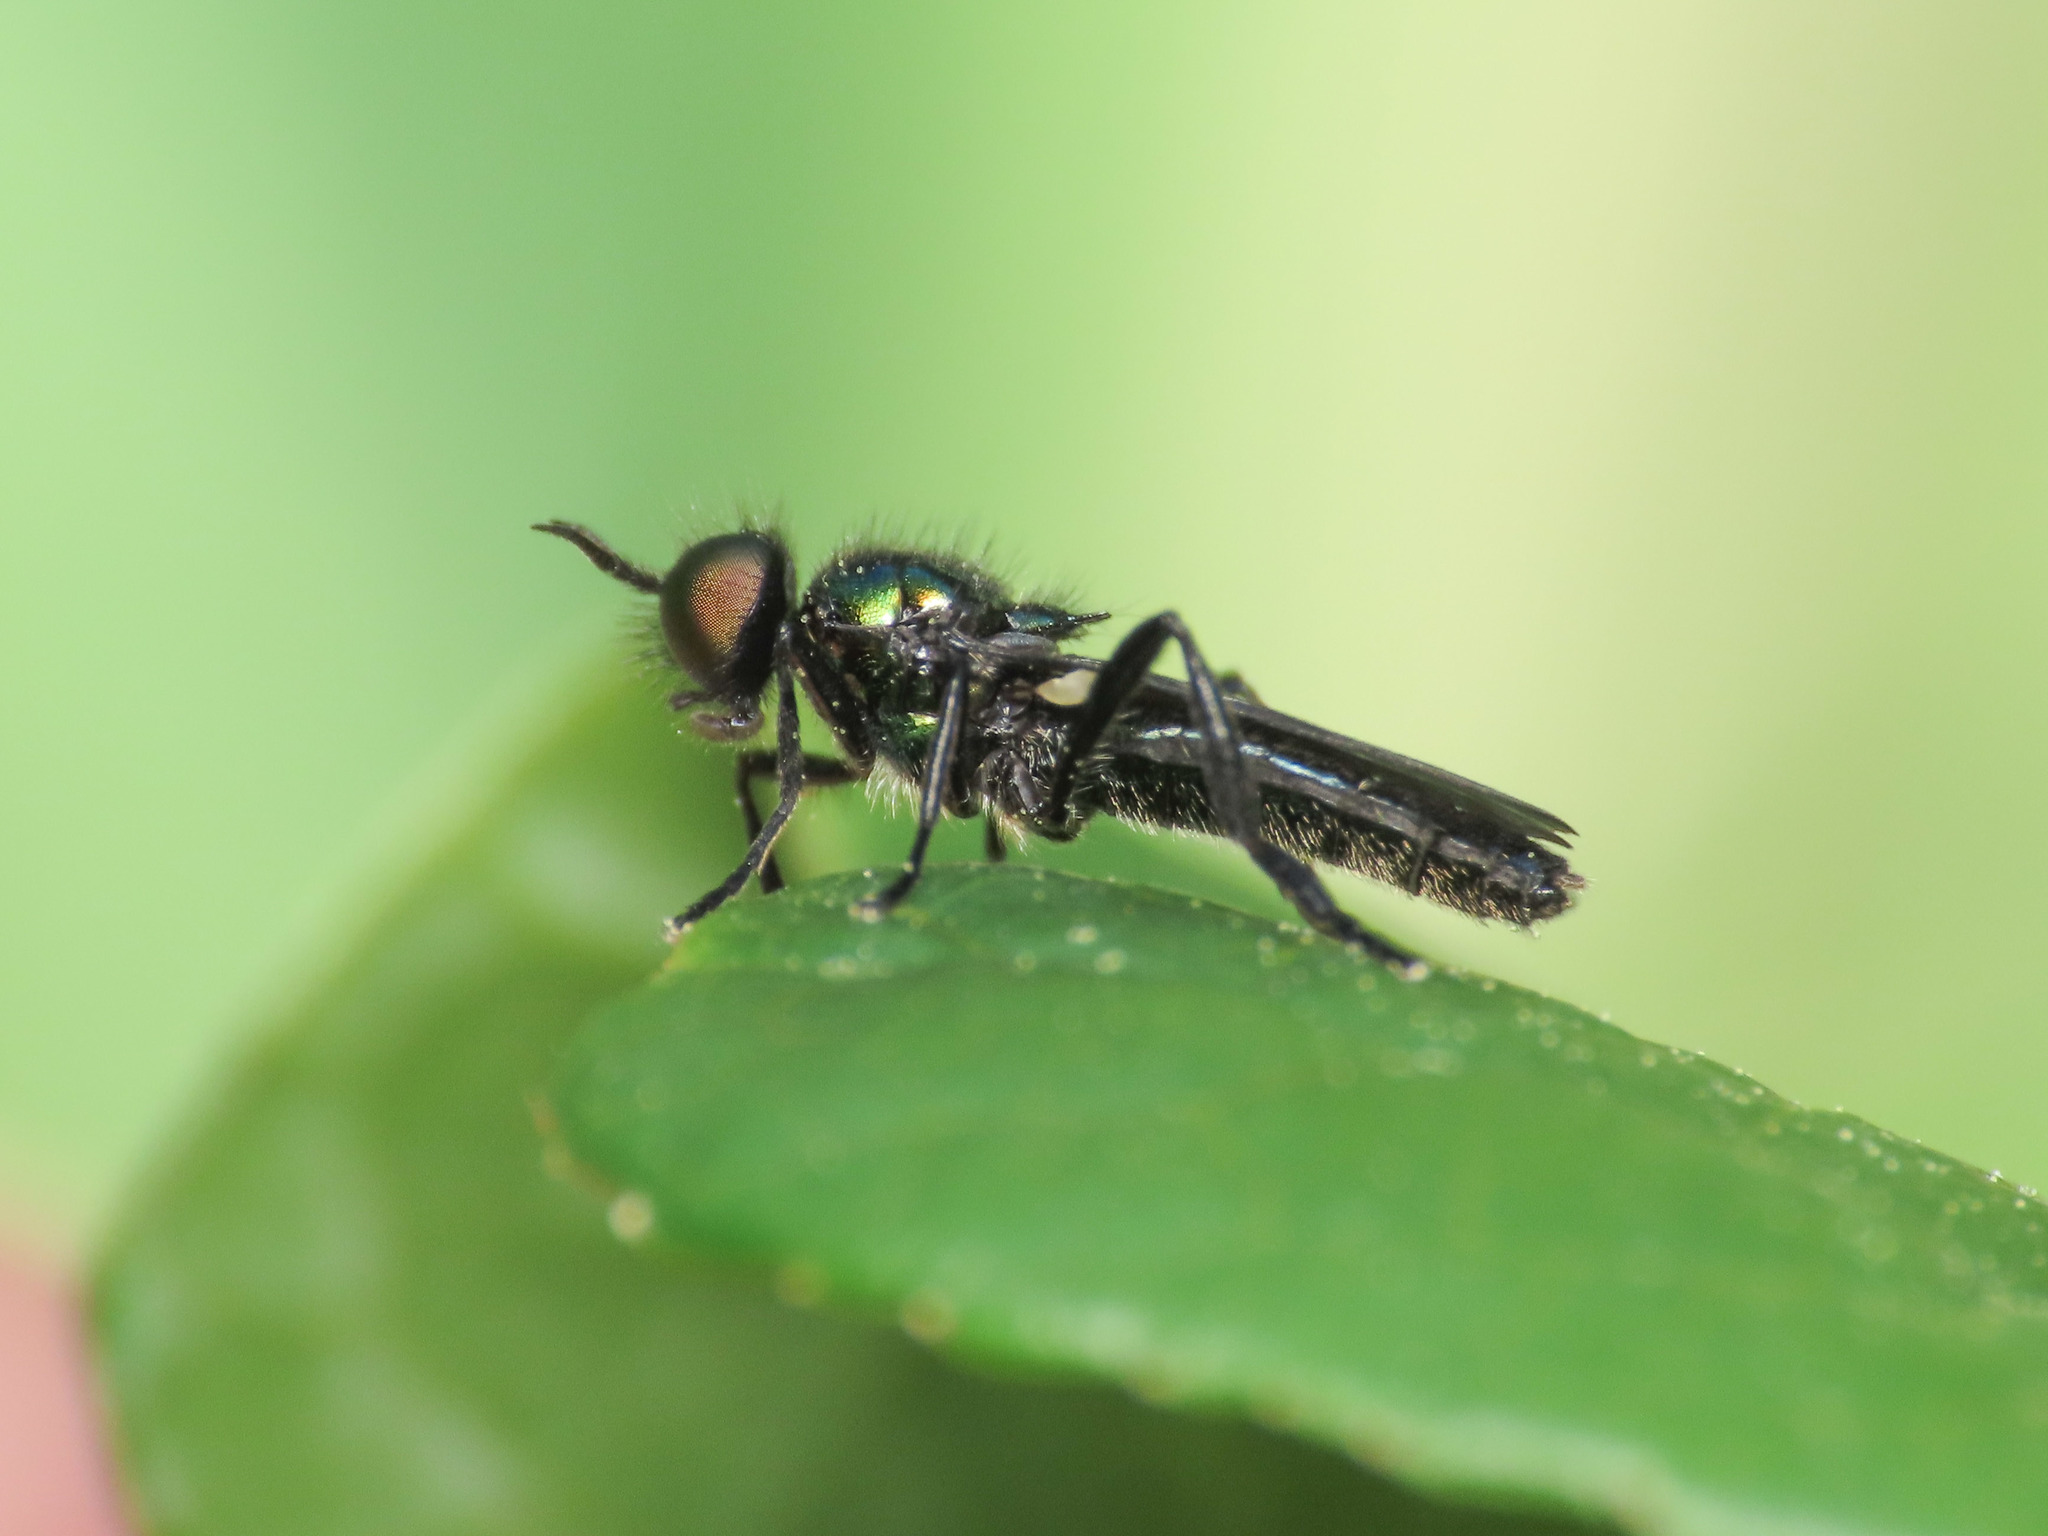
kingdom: Animalia
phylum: Arthropoda
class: Insecta
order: Diptera
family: Stratiomyidae
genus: Actina
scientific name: Actina chalybea
